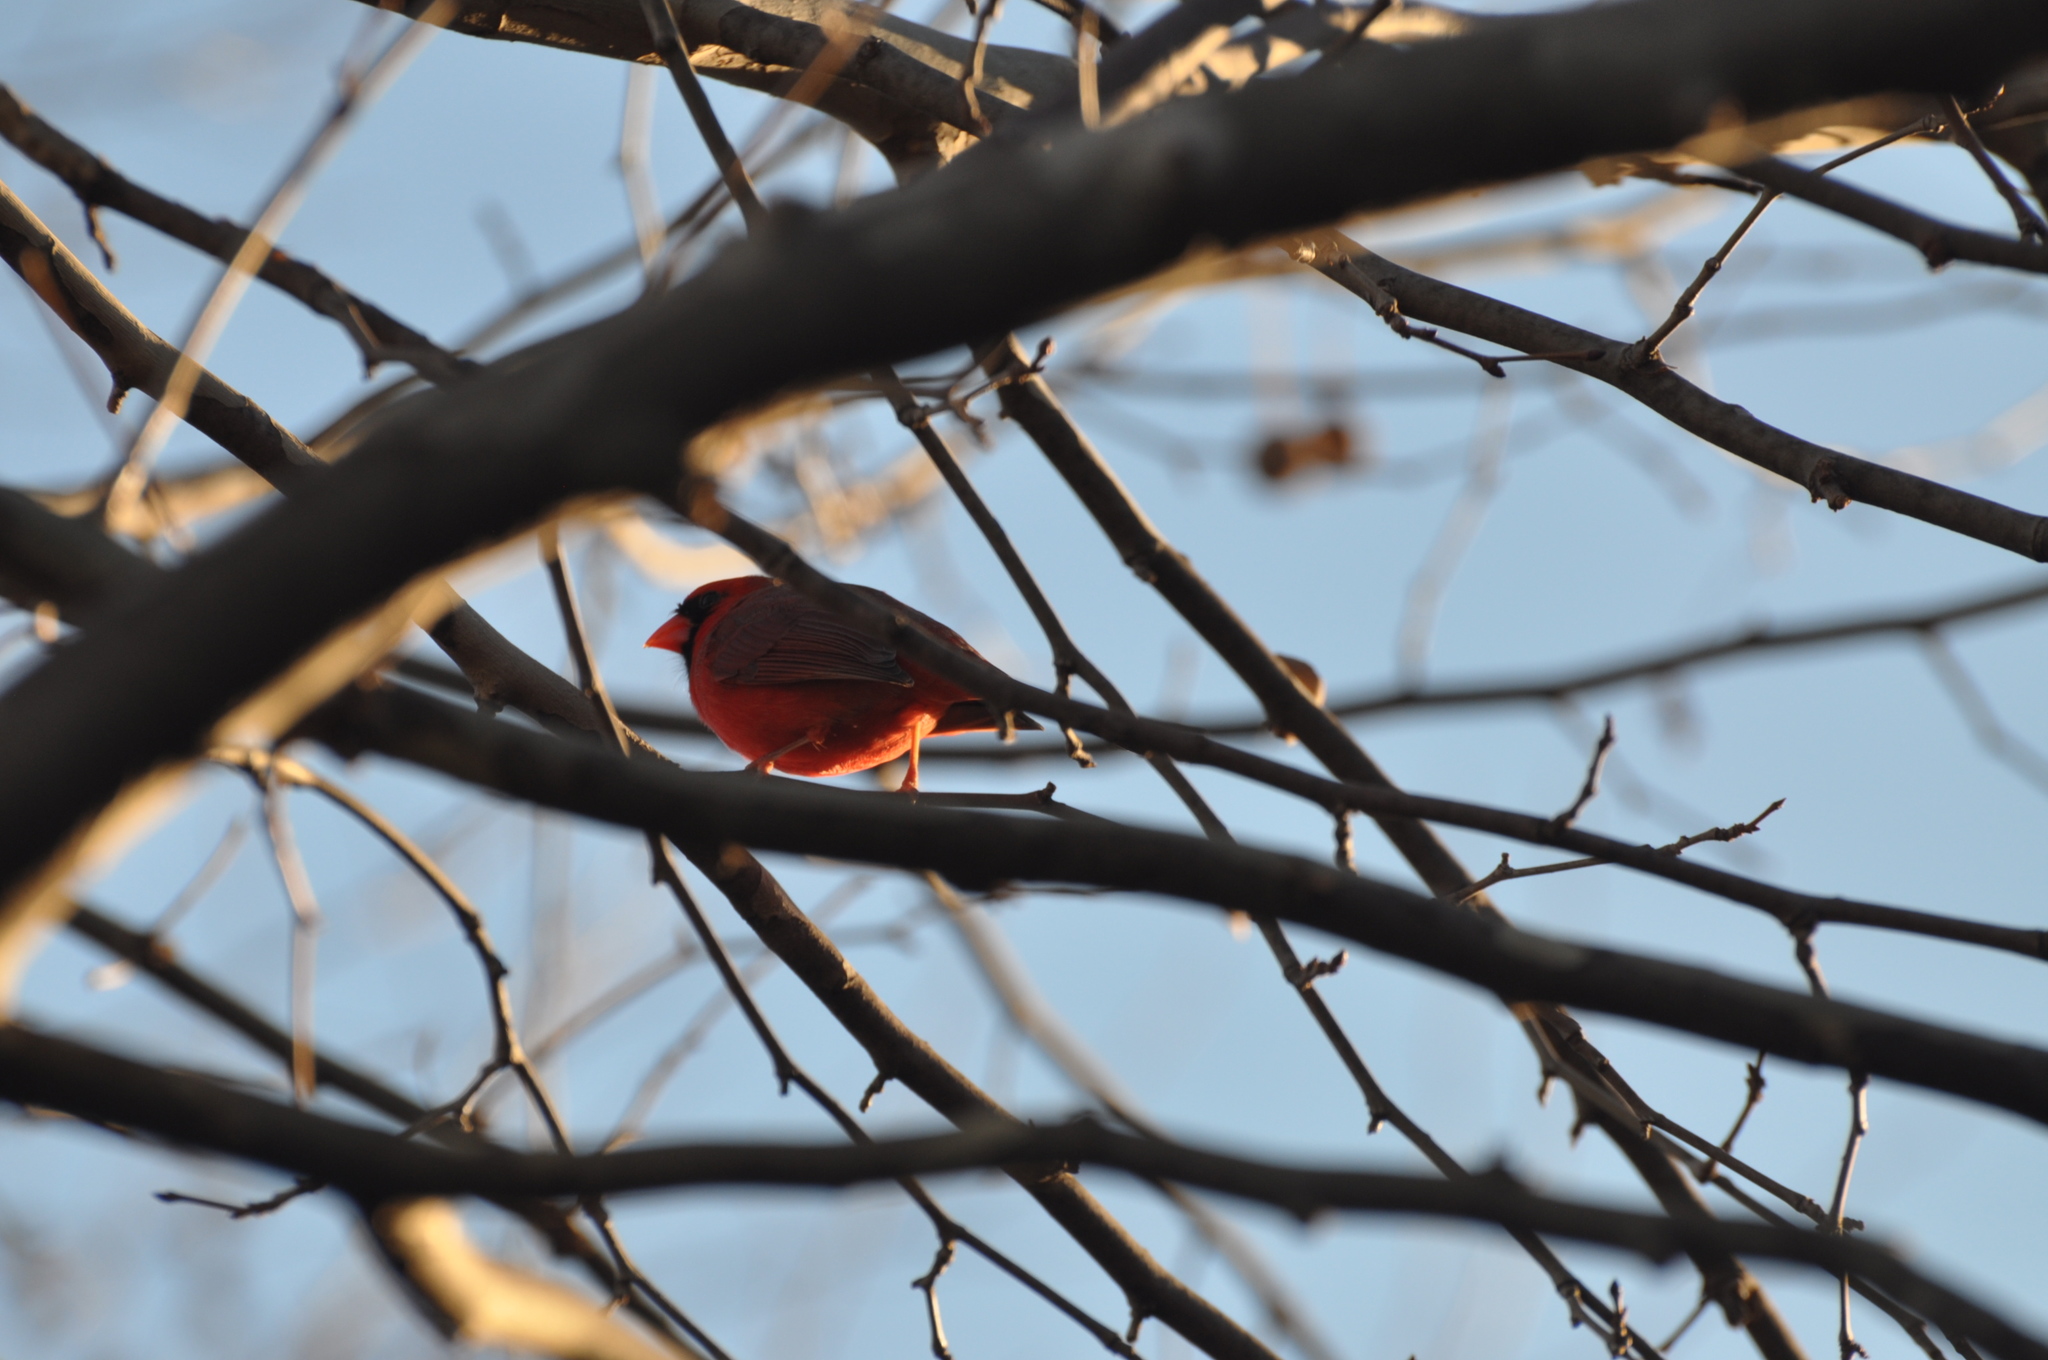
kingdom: Animalia
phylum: Chordata
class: Aves
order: Passeriformes
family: Cardinalidae
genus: Cardinalis
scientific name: Cardinalis cardinalis
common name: Northern cardinal
